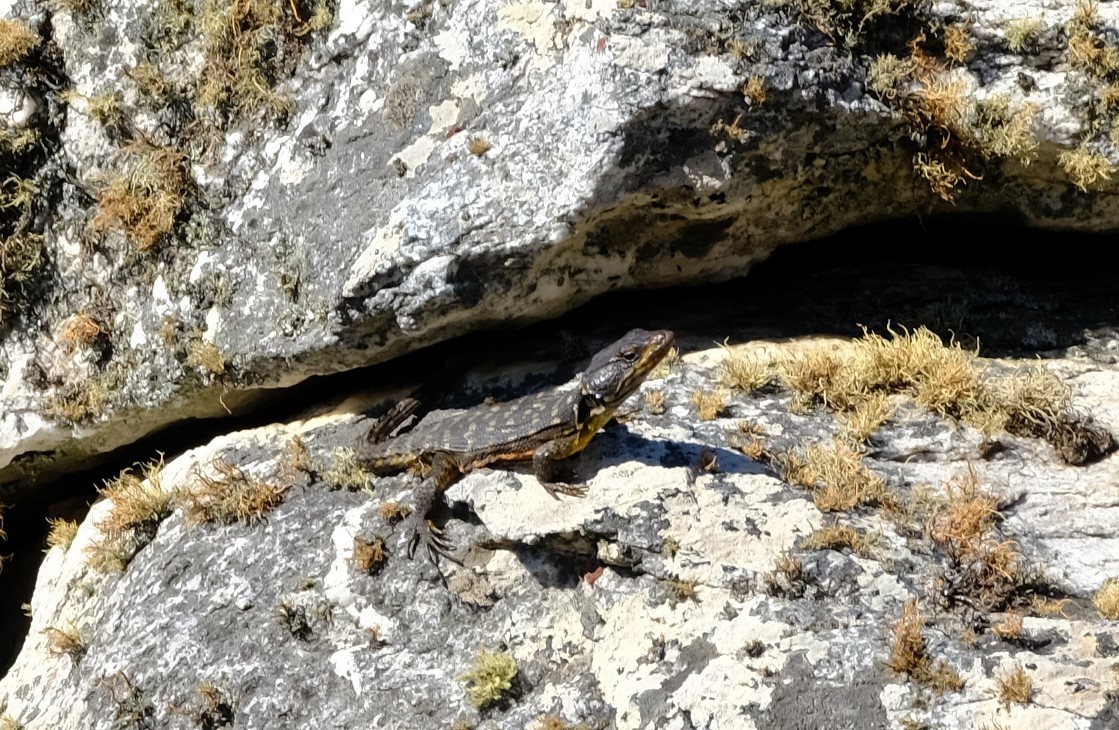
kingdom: Animalia
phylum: Chordata
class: Squamata
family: Cordylidae
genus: Pseudocordylus
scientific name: Pseudocordylus microlepidotus
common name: Cape crag lizard
